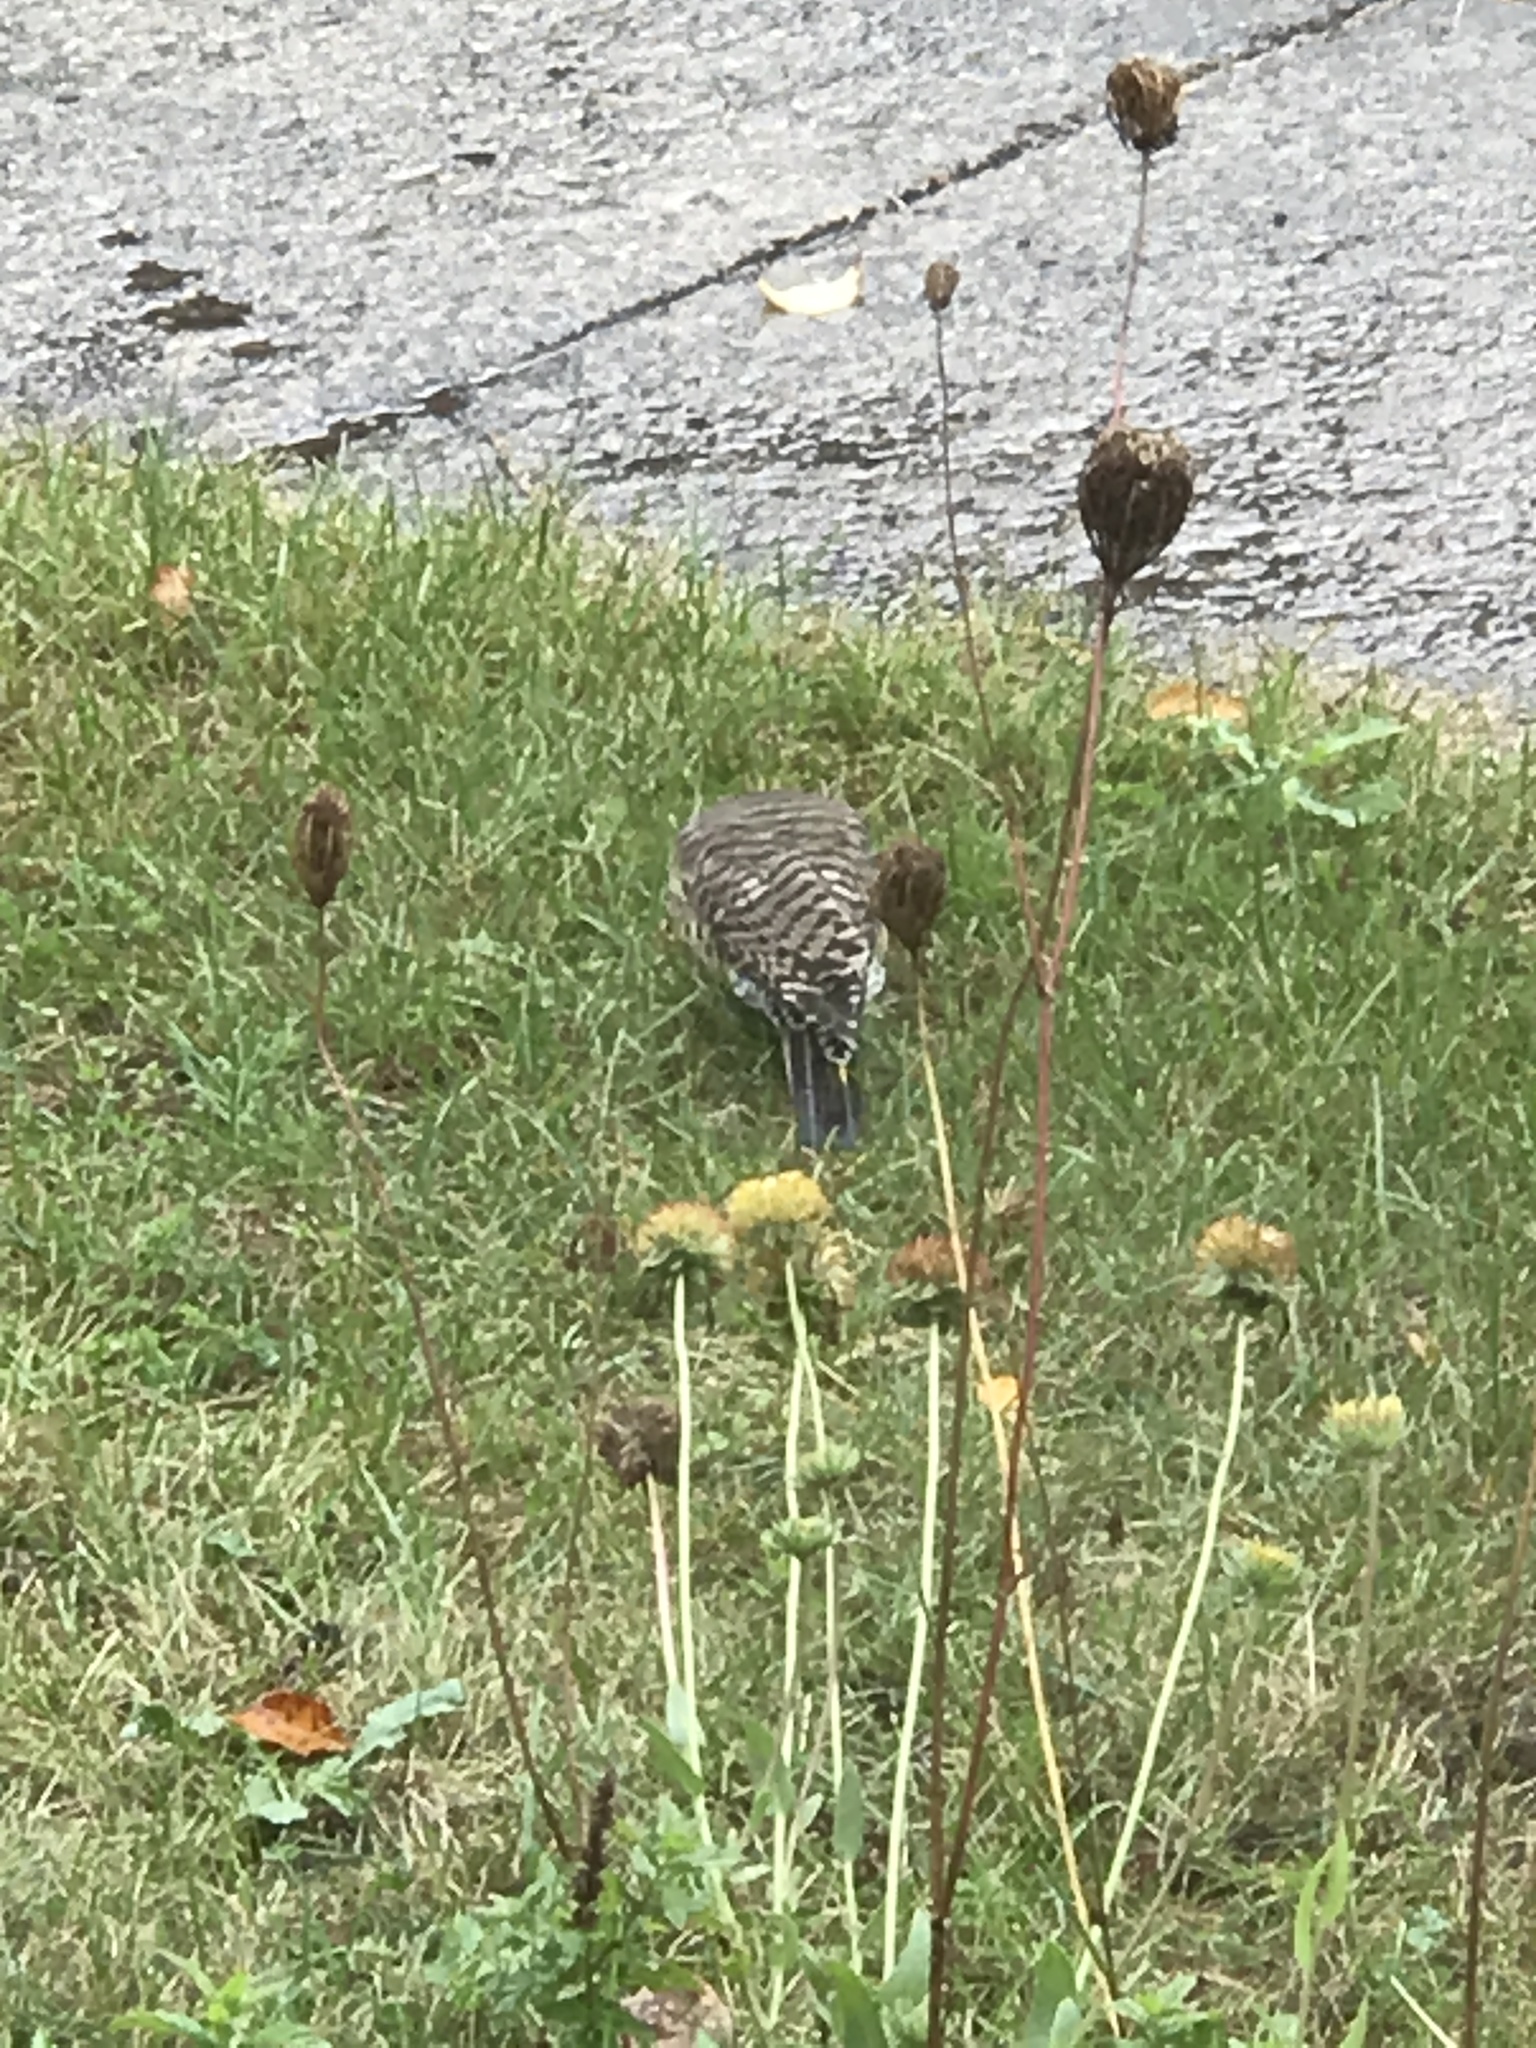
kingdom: Animalia
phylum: Chordata
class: Aves
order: Piciformes
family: Picidae
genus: Colaptes
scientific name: Colaptes auratus
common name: Northern flicker
